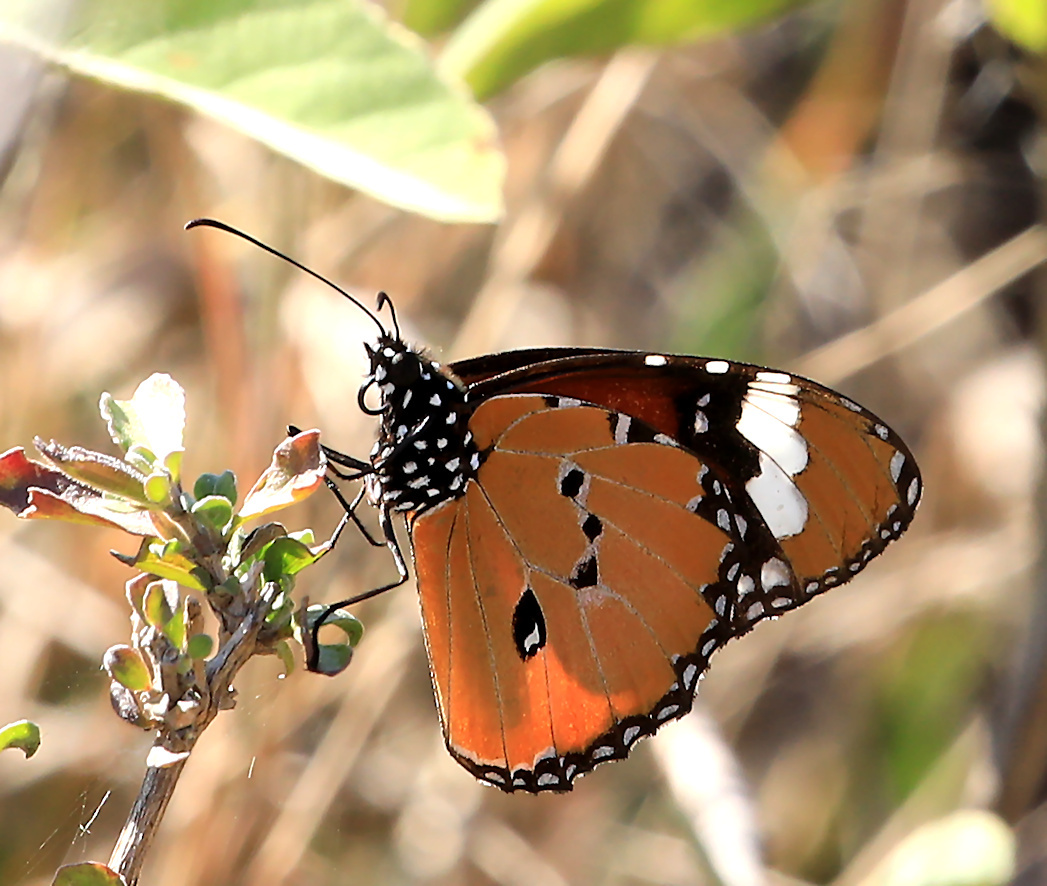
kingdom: Animalia
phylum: Arthropoda
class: Insecta
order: Lepidoptera
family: Nymphalidae
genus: Danaus
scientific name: Danaus chrysippus
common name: Plain tiger
